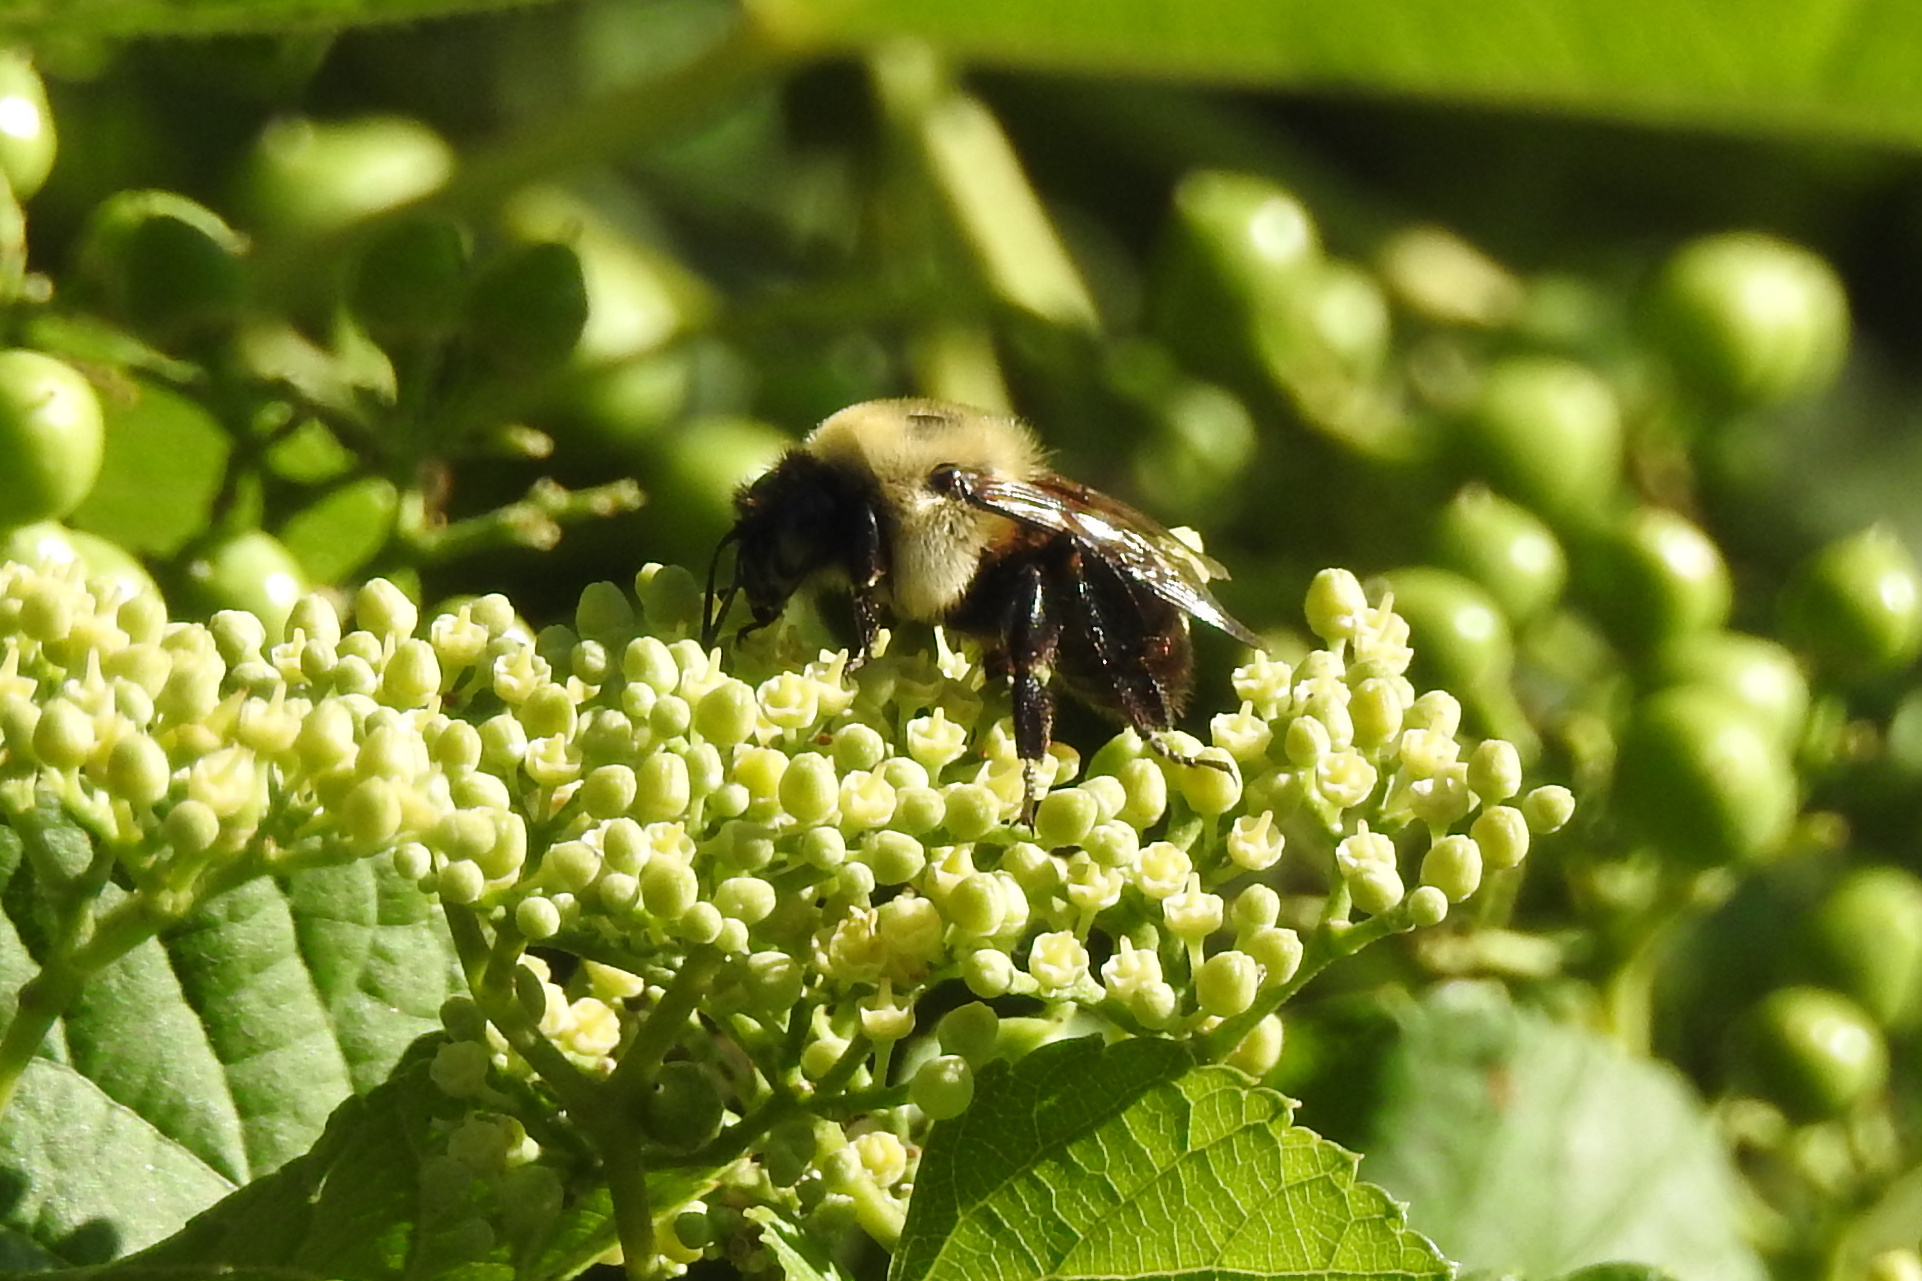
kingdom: Animalia
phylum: Arthropoda
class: Insecta
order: Hymenoptera
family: Apidae
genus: Bombus
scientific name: Bombus griseocollis
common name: Brown-belted bumble bee
